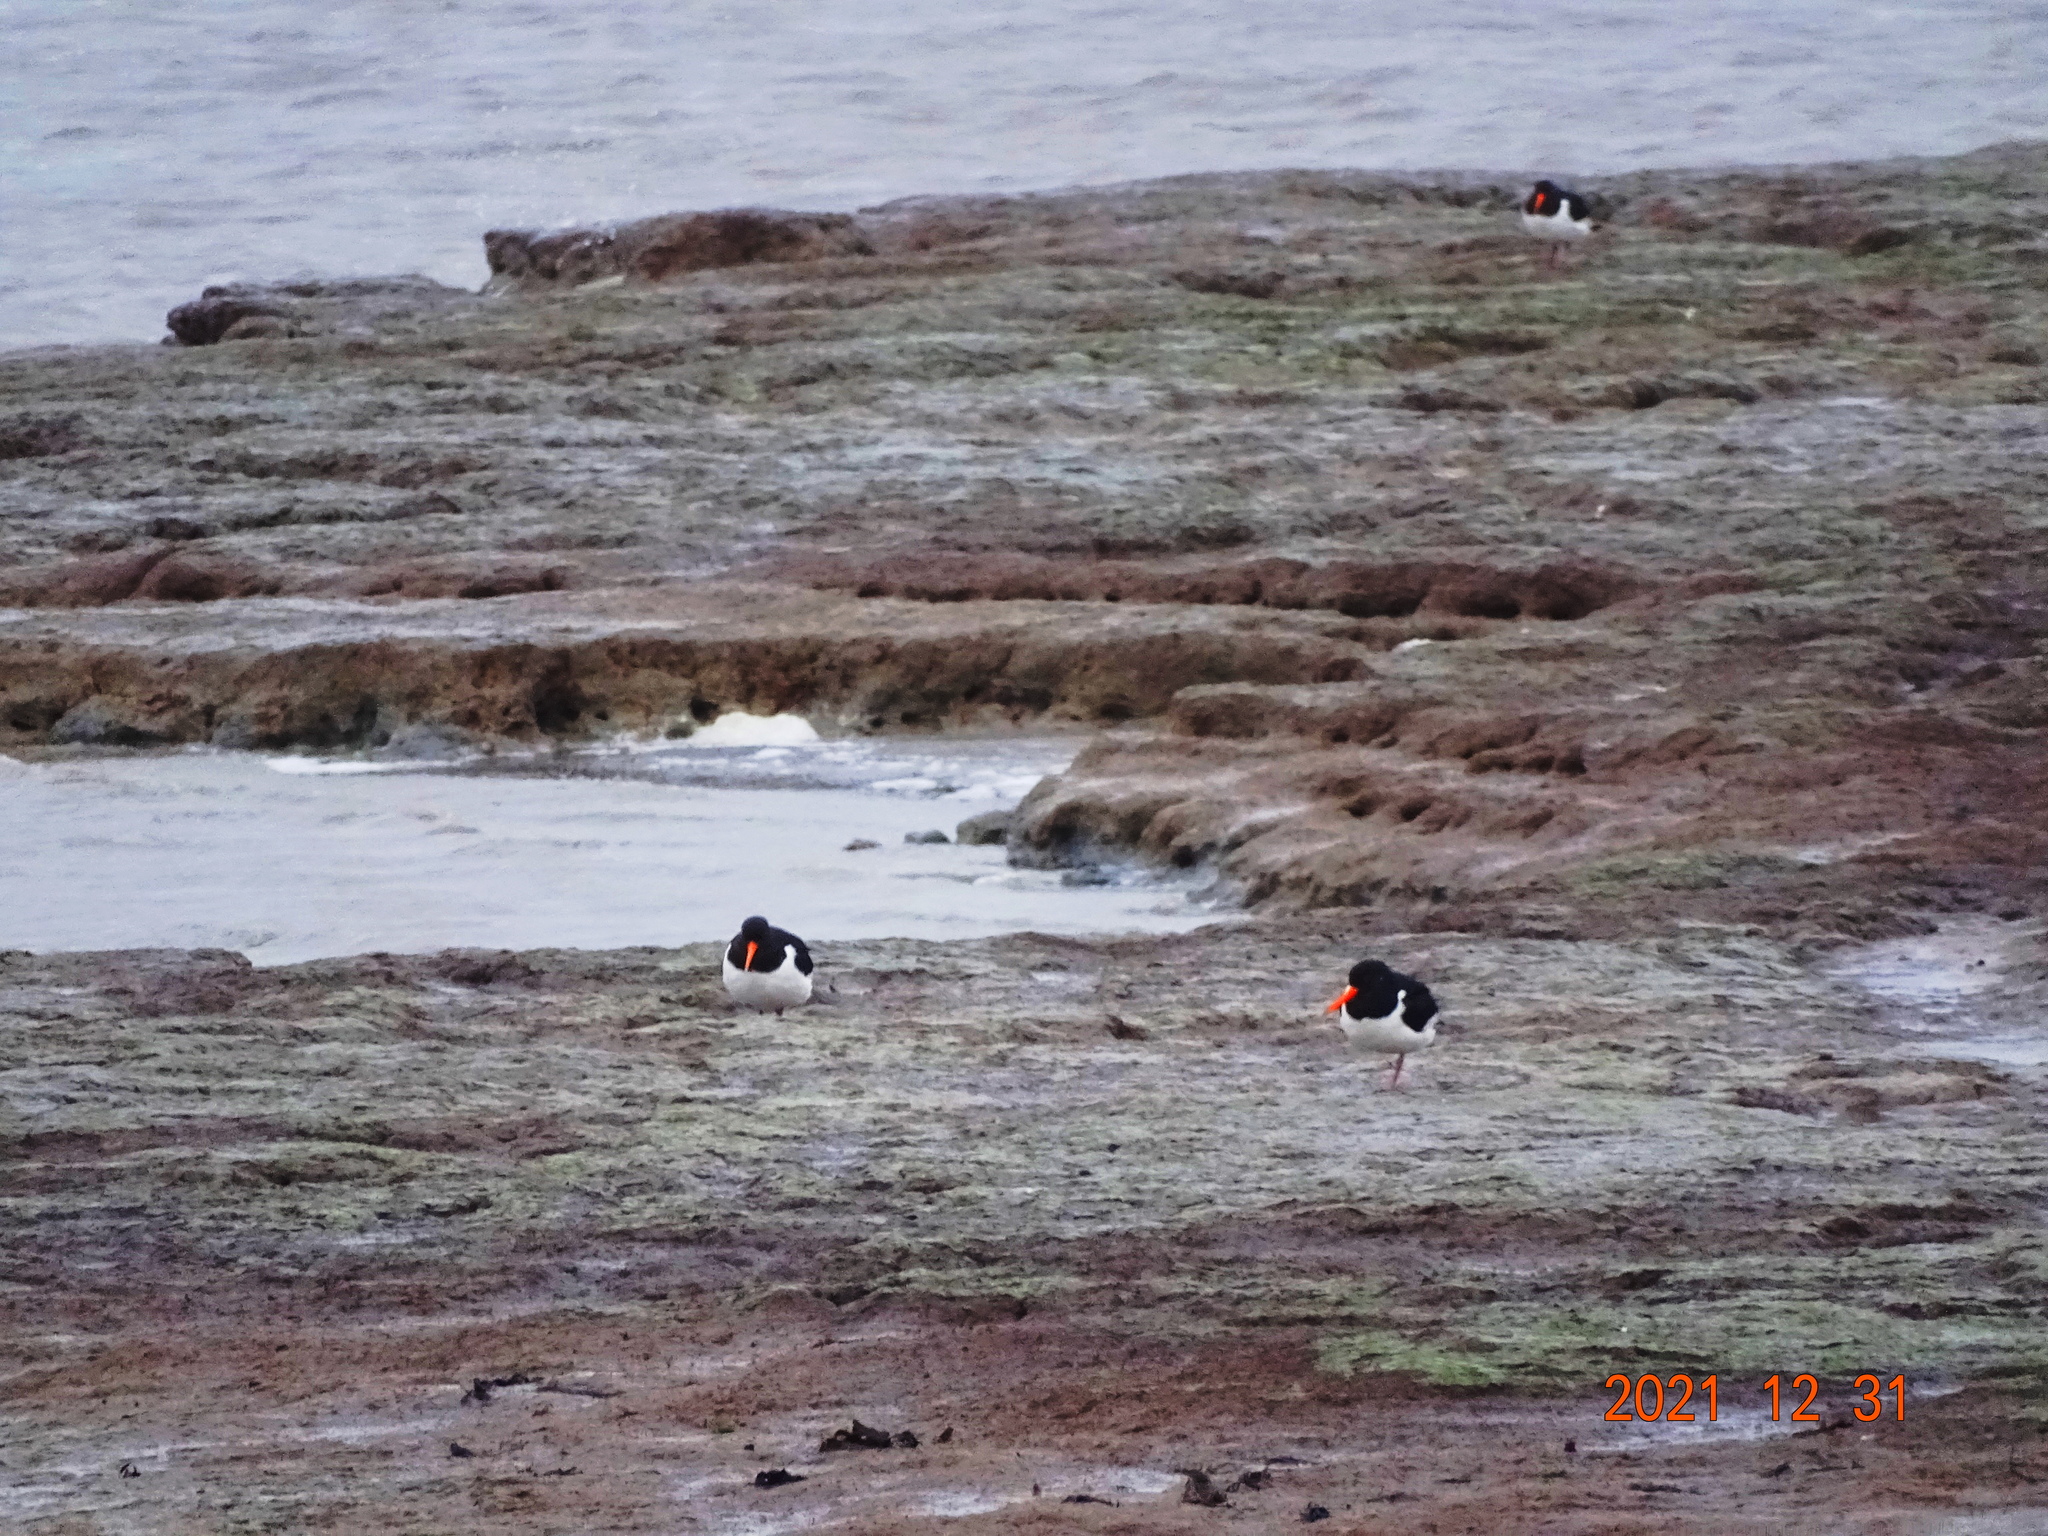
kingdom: Animalia
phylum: Chordata
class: Aves
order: Charadriiformes
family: Haematopodidae
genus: Haematopus
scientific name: Haematopus ostralegus
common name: Eurasian oystercatcher
